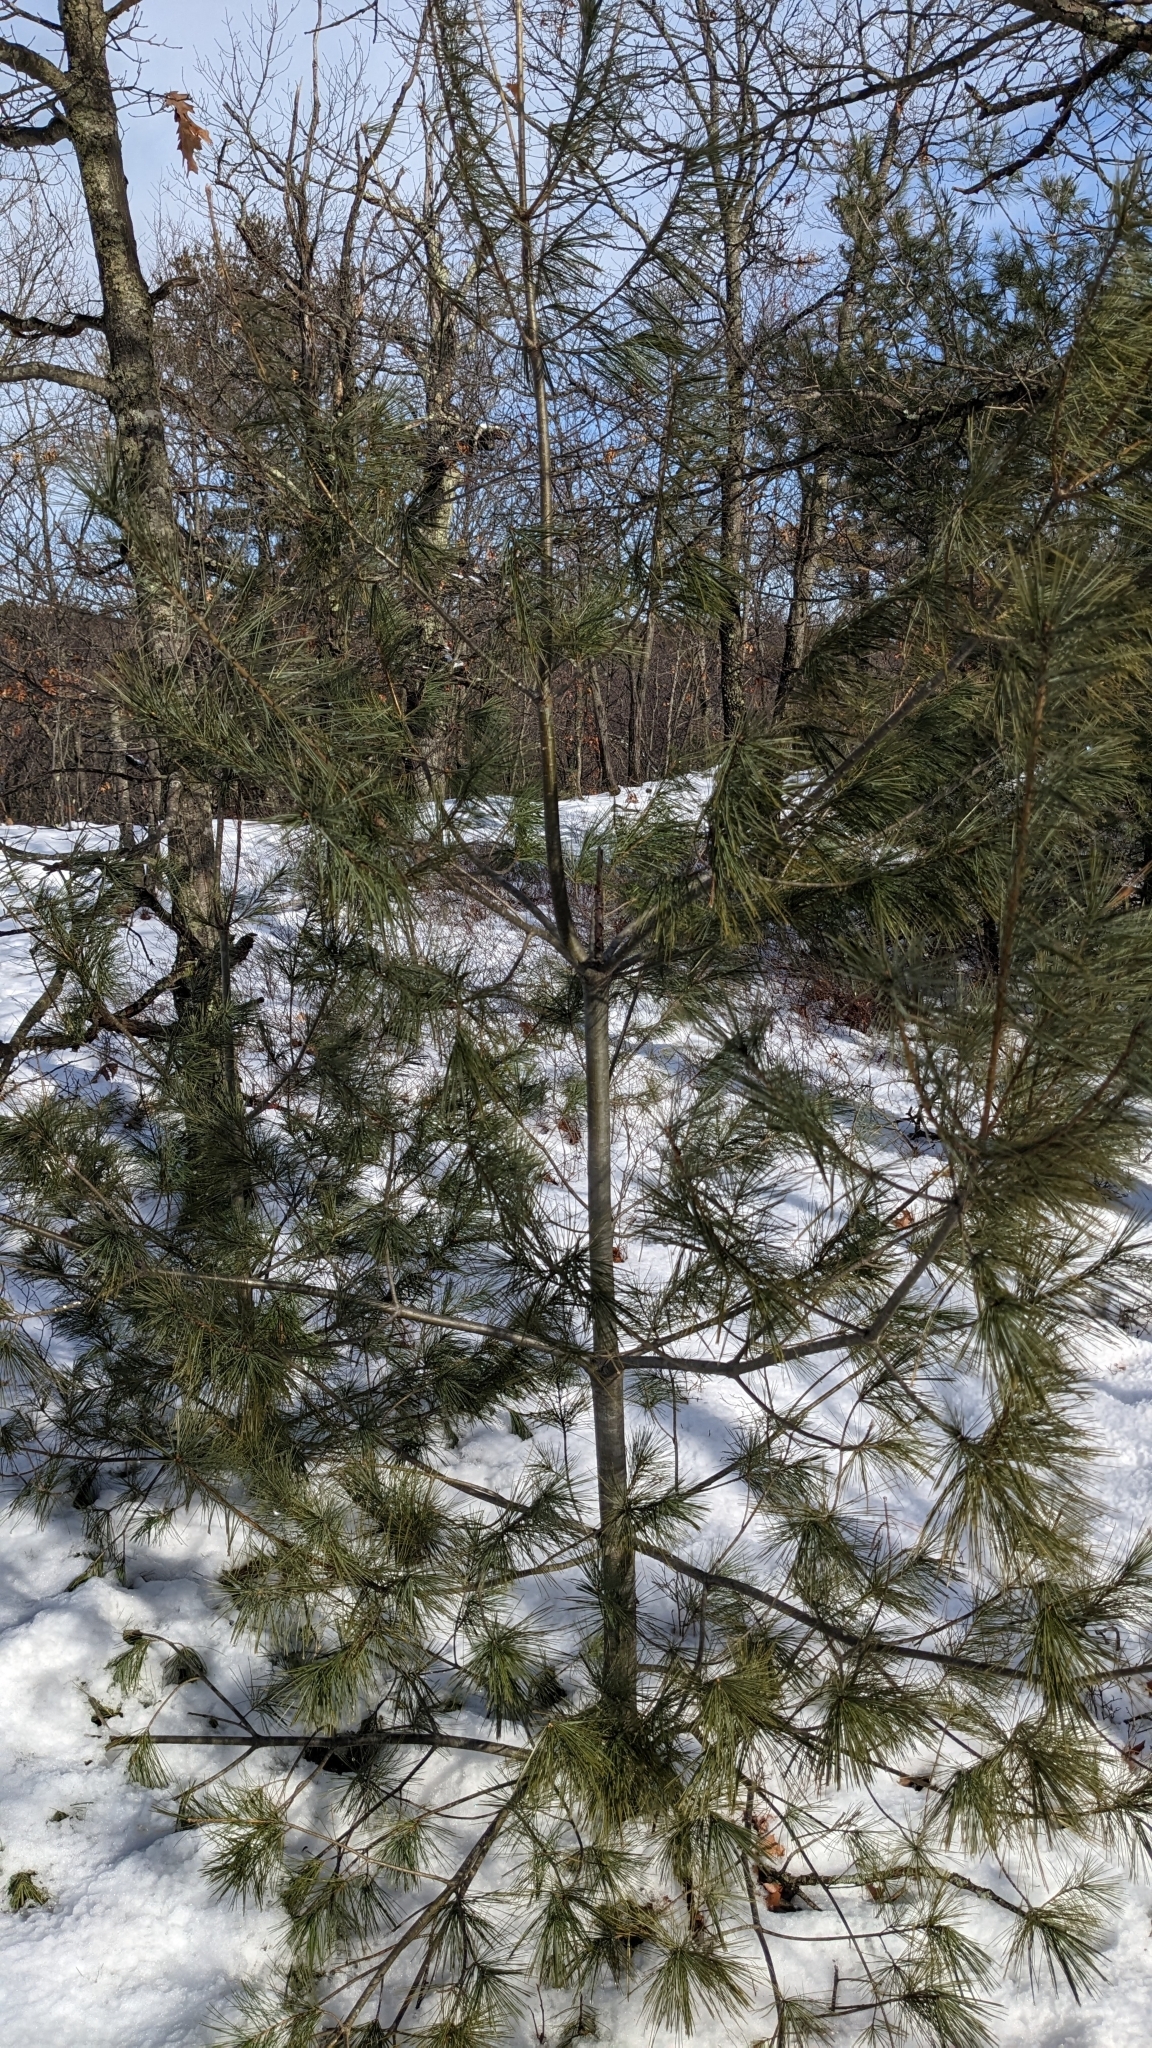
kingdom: Plantae
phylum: Tracheophyta
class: Pinopsida
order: Pinales
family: Pinaceae
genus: Pinus
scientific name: Pinus strobus
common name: Weymouth pine
